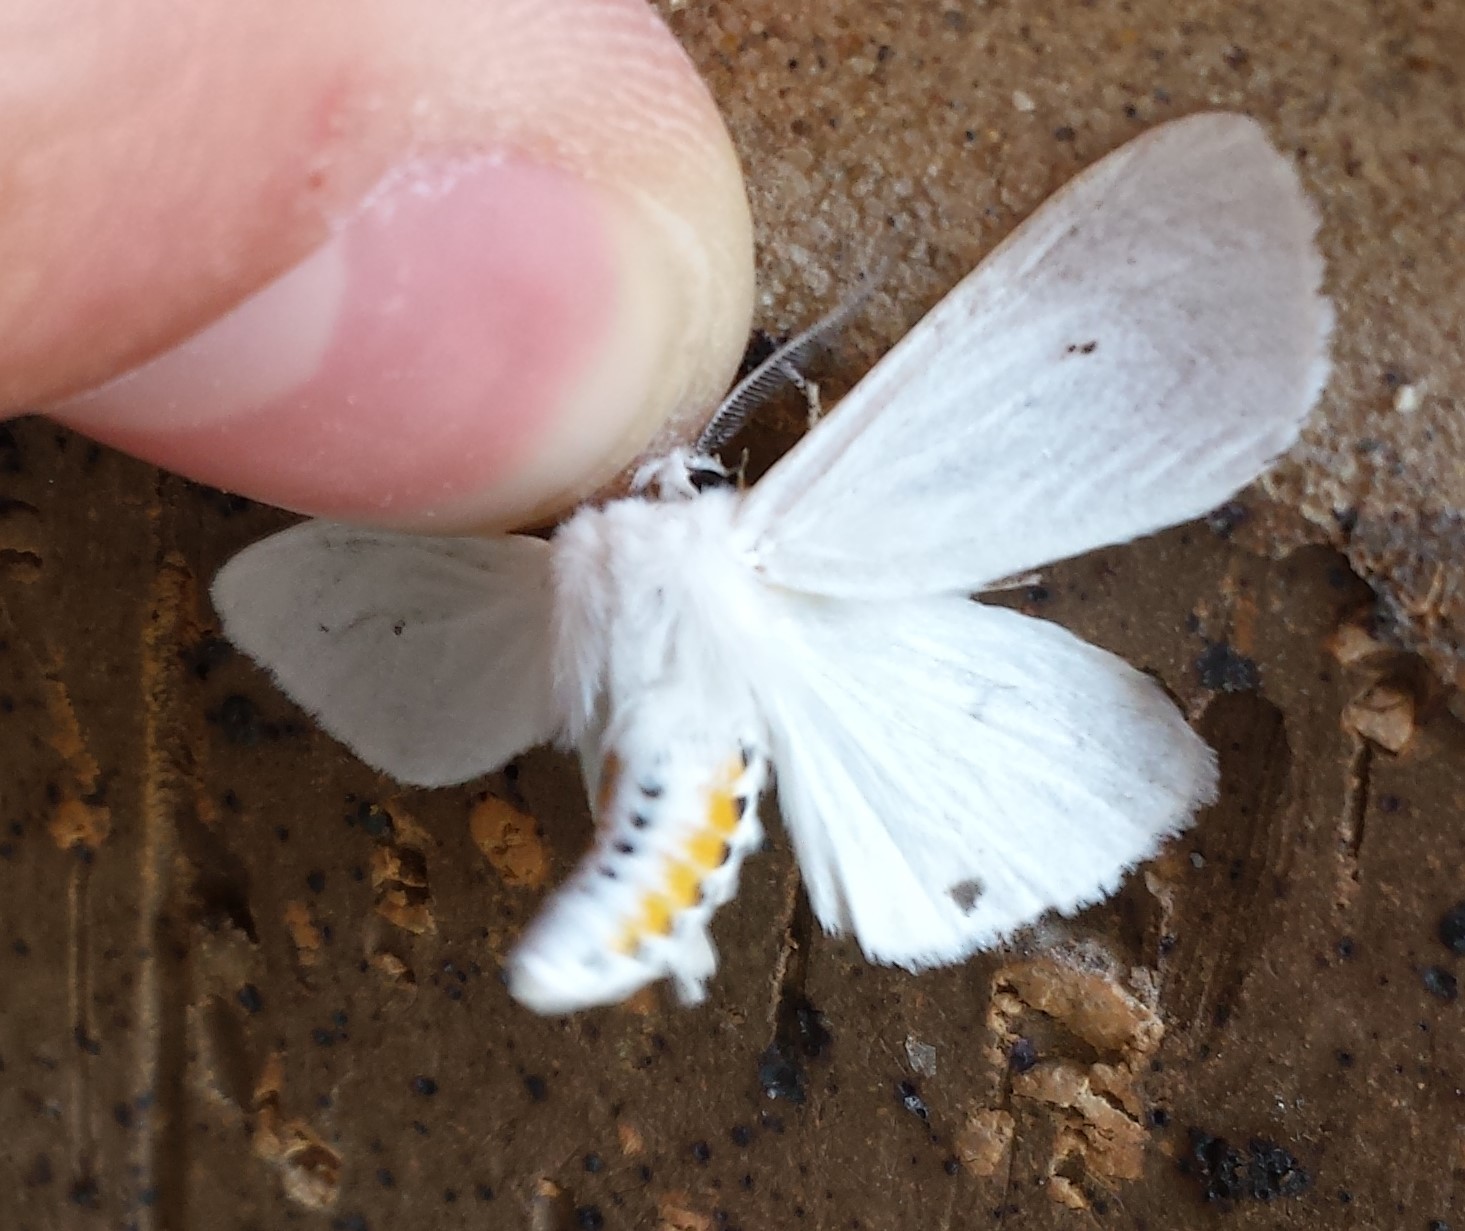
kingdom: Animalia
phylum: Arthropoda
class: Insecta
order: Lepidoptera
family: Erebidae
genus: Spilosoma
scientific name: Spilosoma virginica
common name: Virginia tiger moth
